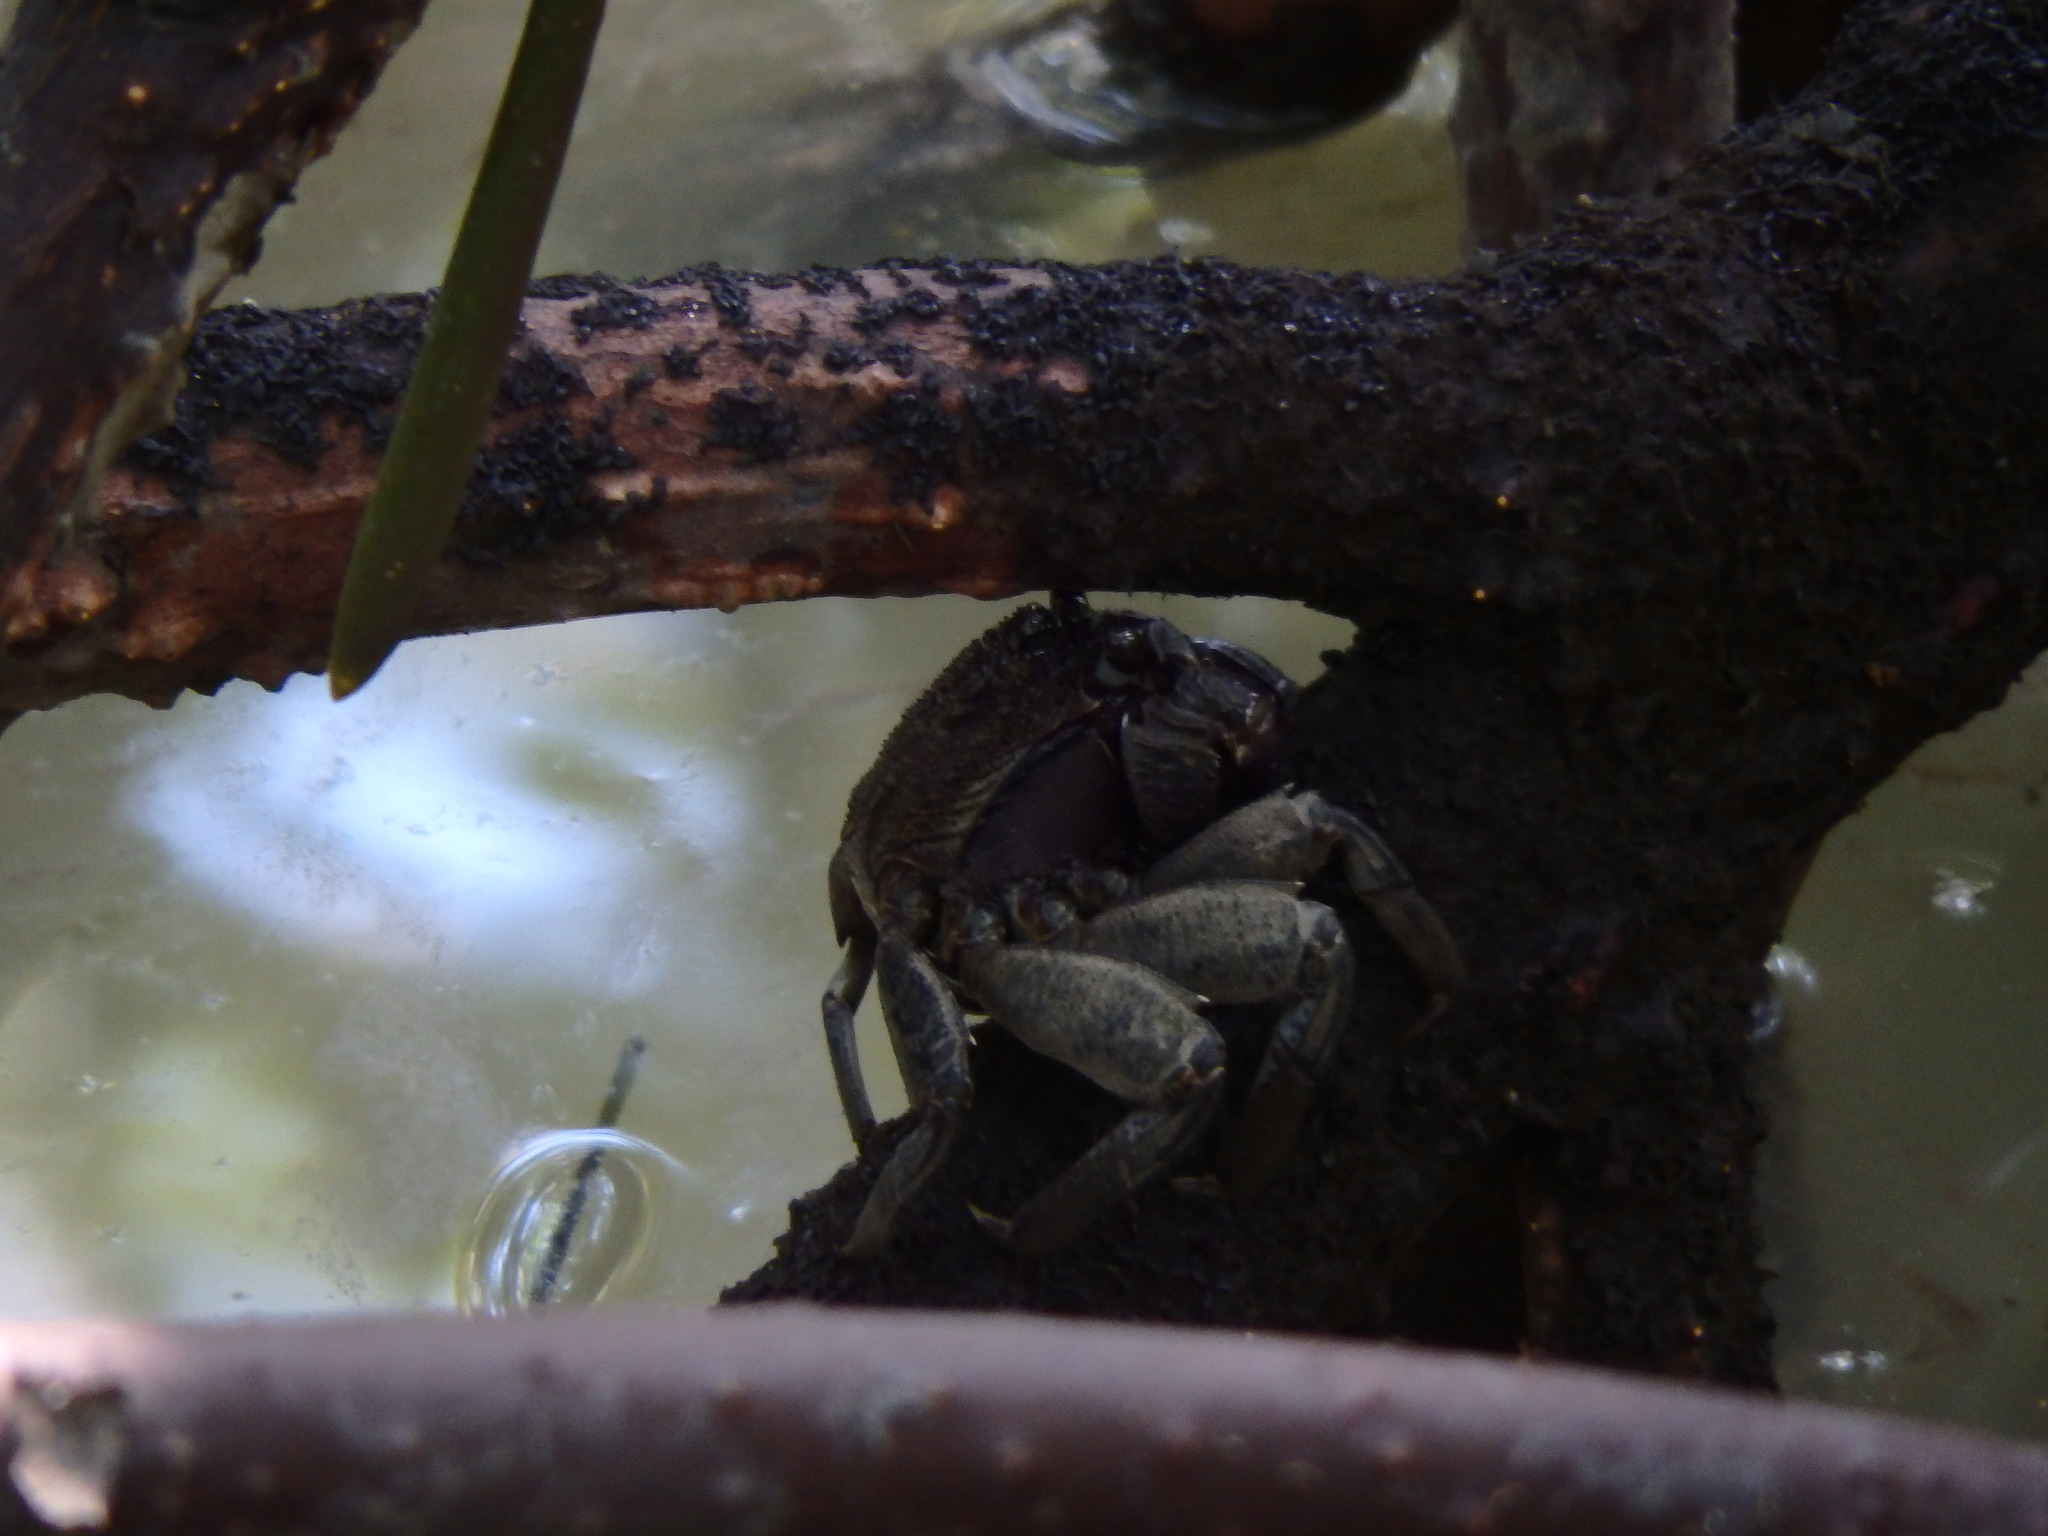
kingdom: Animalia
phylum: Arthropoda
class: Malacostraca
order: Decapoda
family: Sesarmidae
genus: Episesarma
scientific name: Episesarma versicolor
